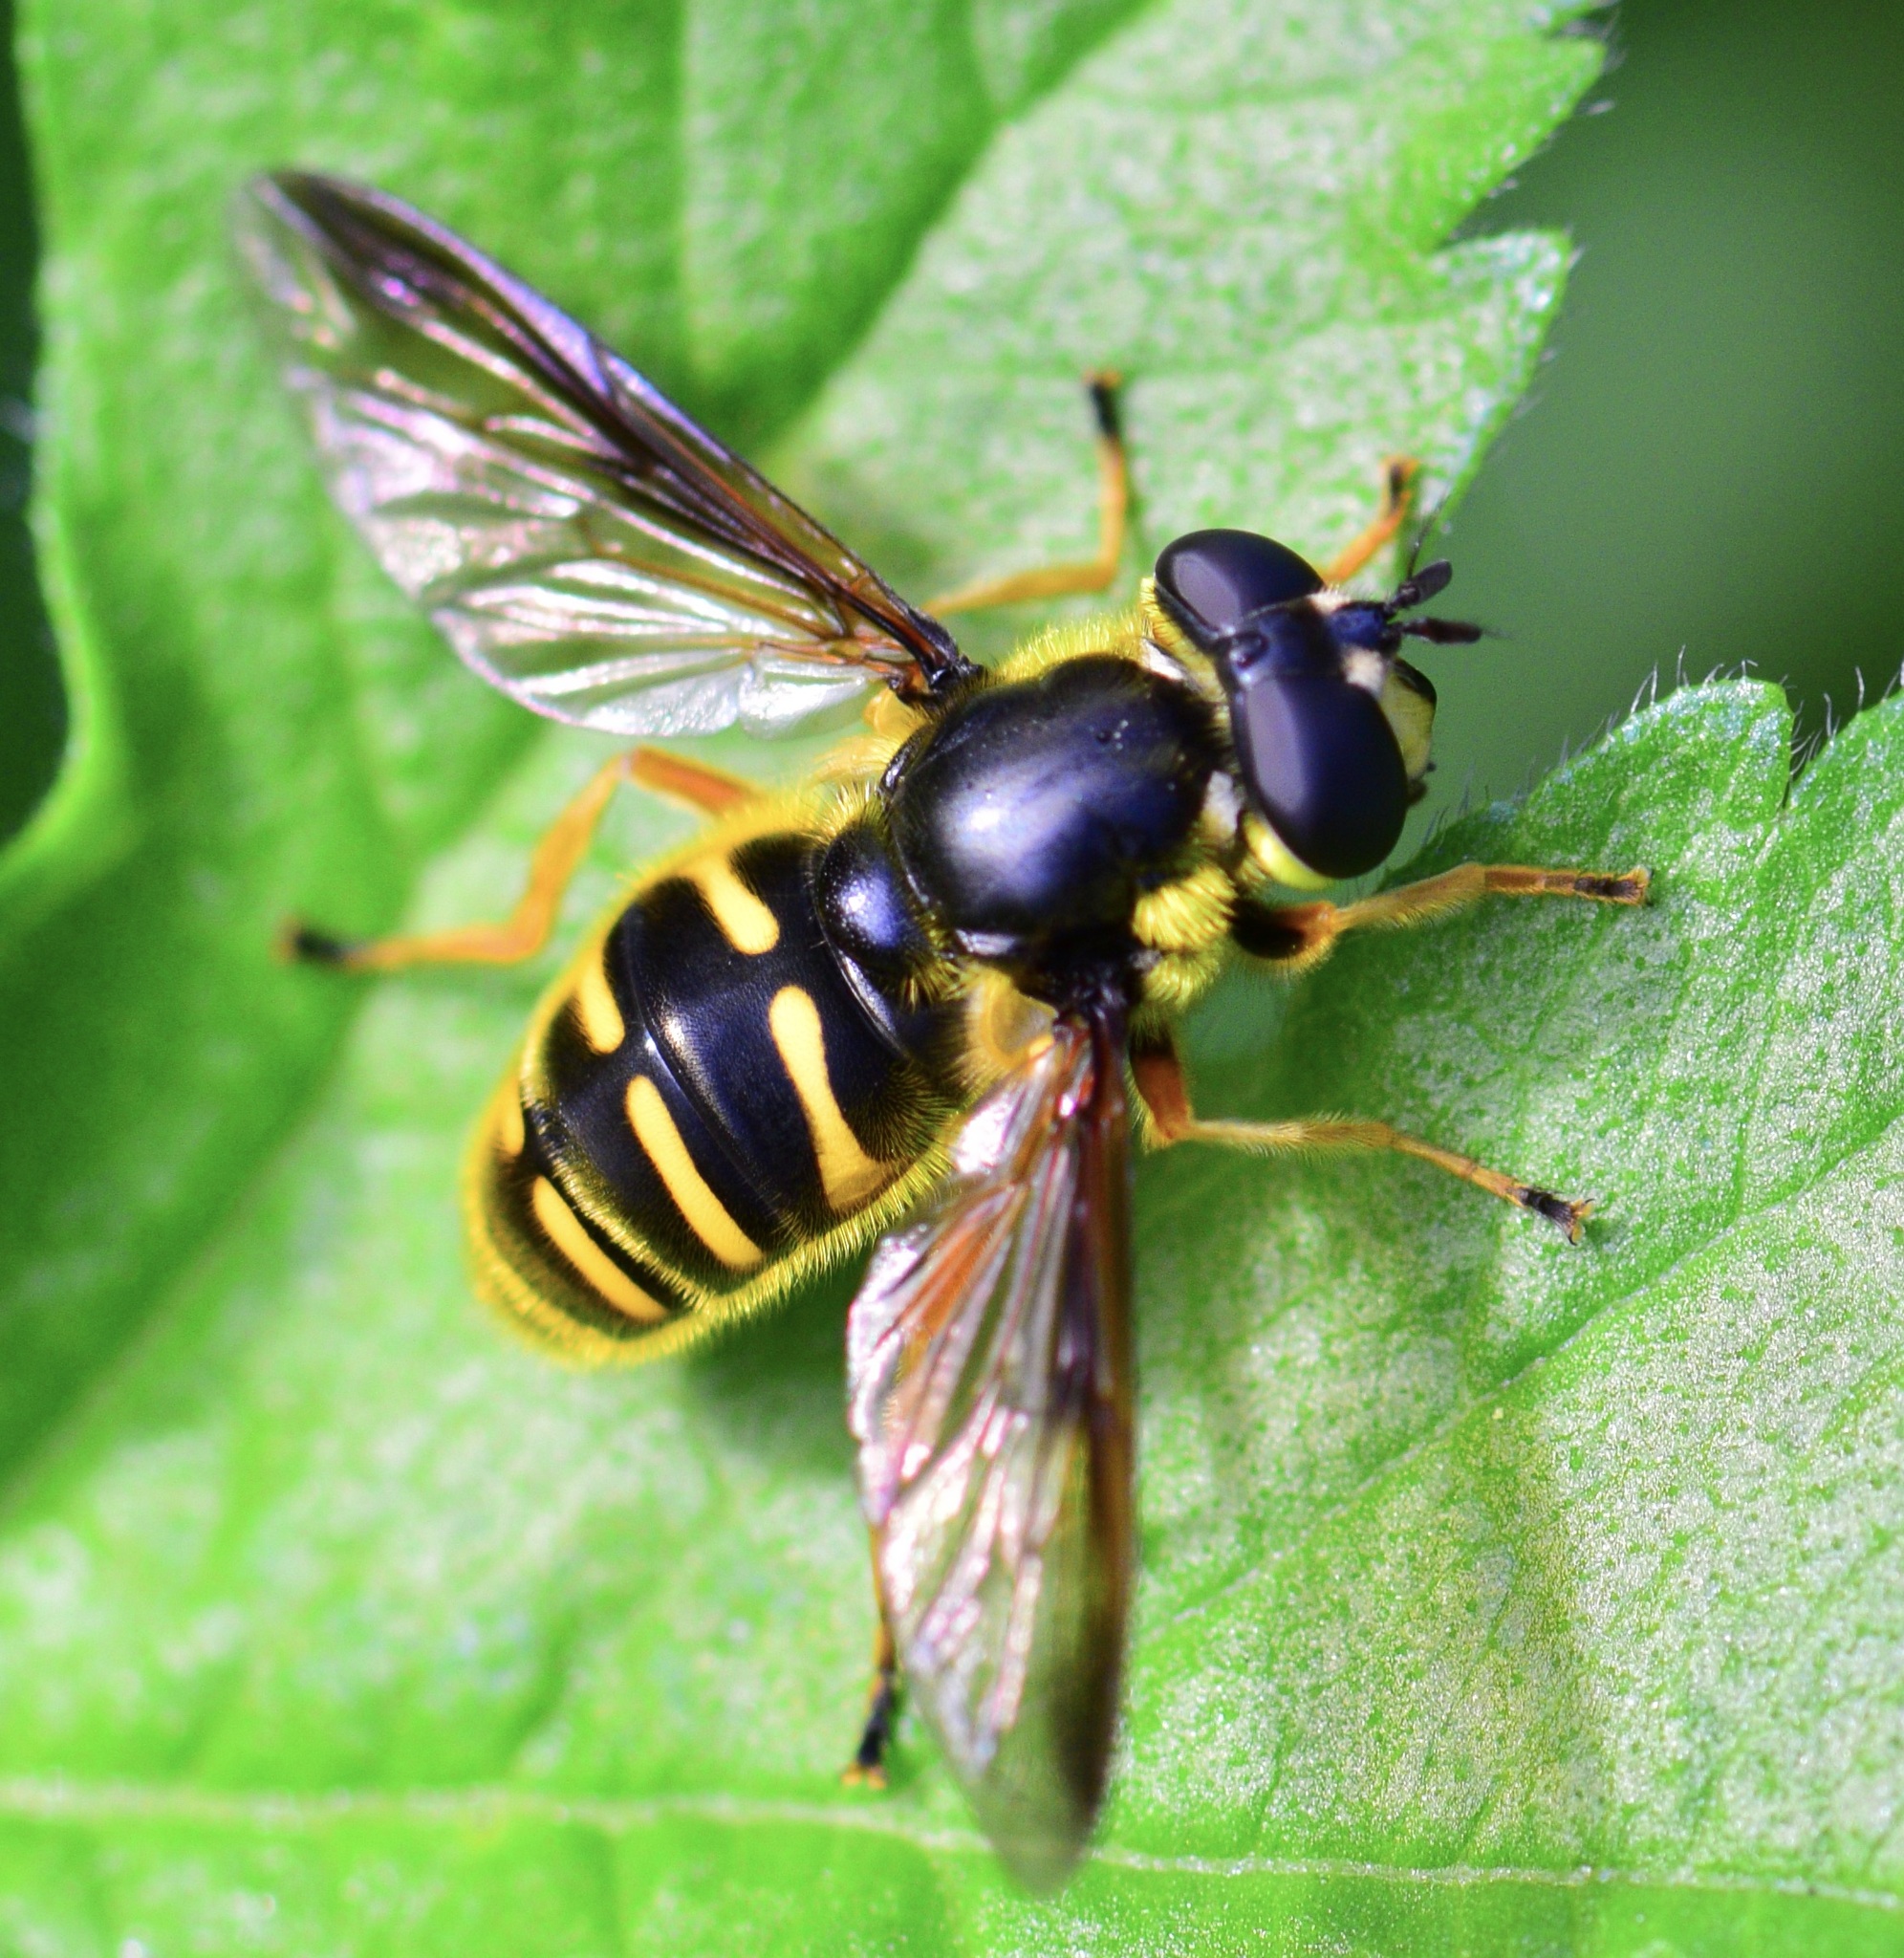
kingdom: Animalia
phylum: Arthropoda
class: Insecta
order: Diptera
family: Syrphidae
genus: Sericomyia
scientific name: Sericomyia chrysotoxoides
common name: Oblique-banded pond fly
